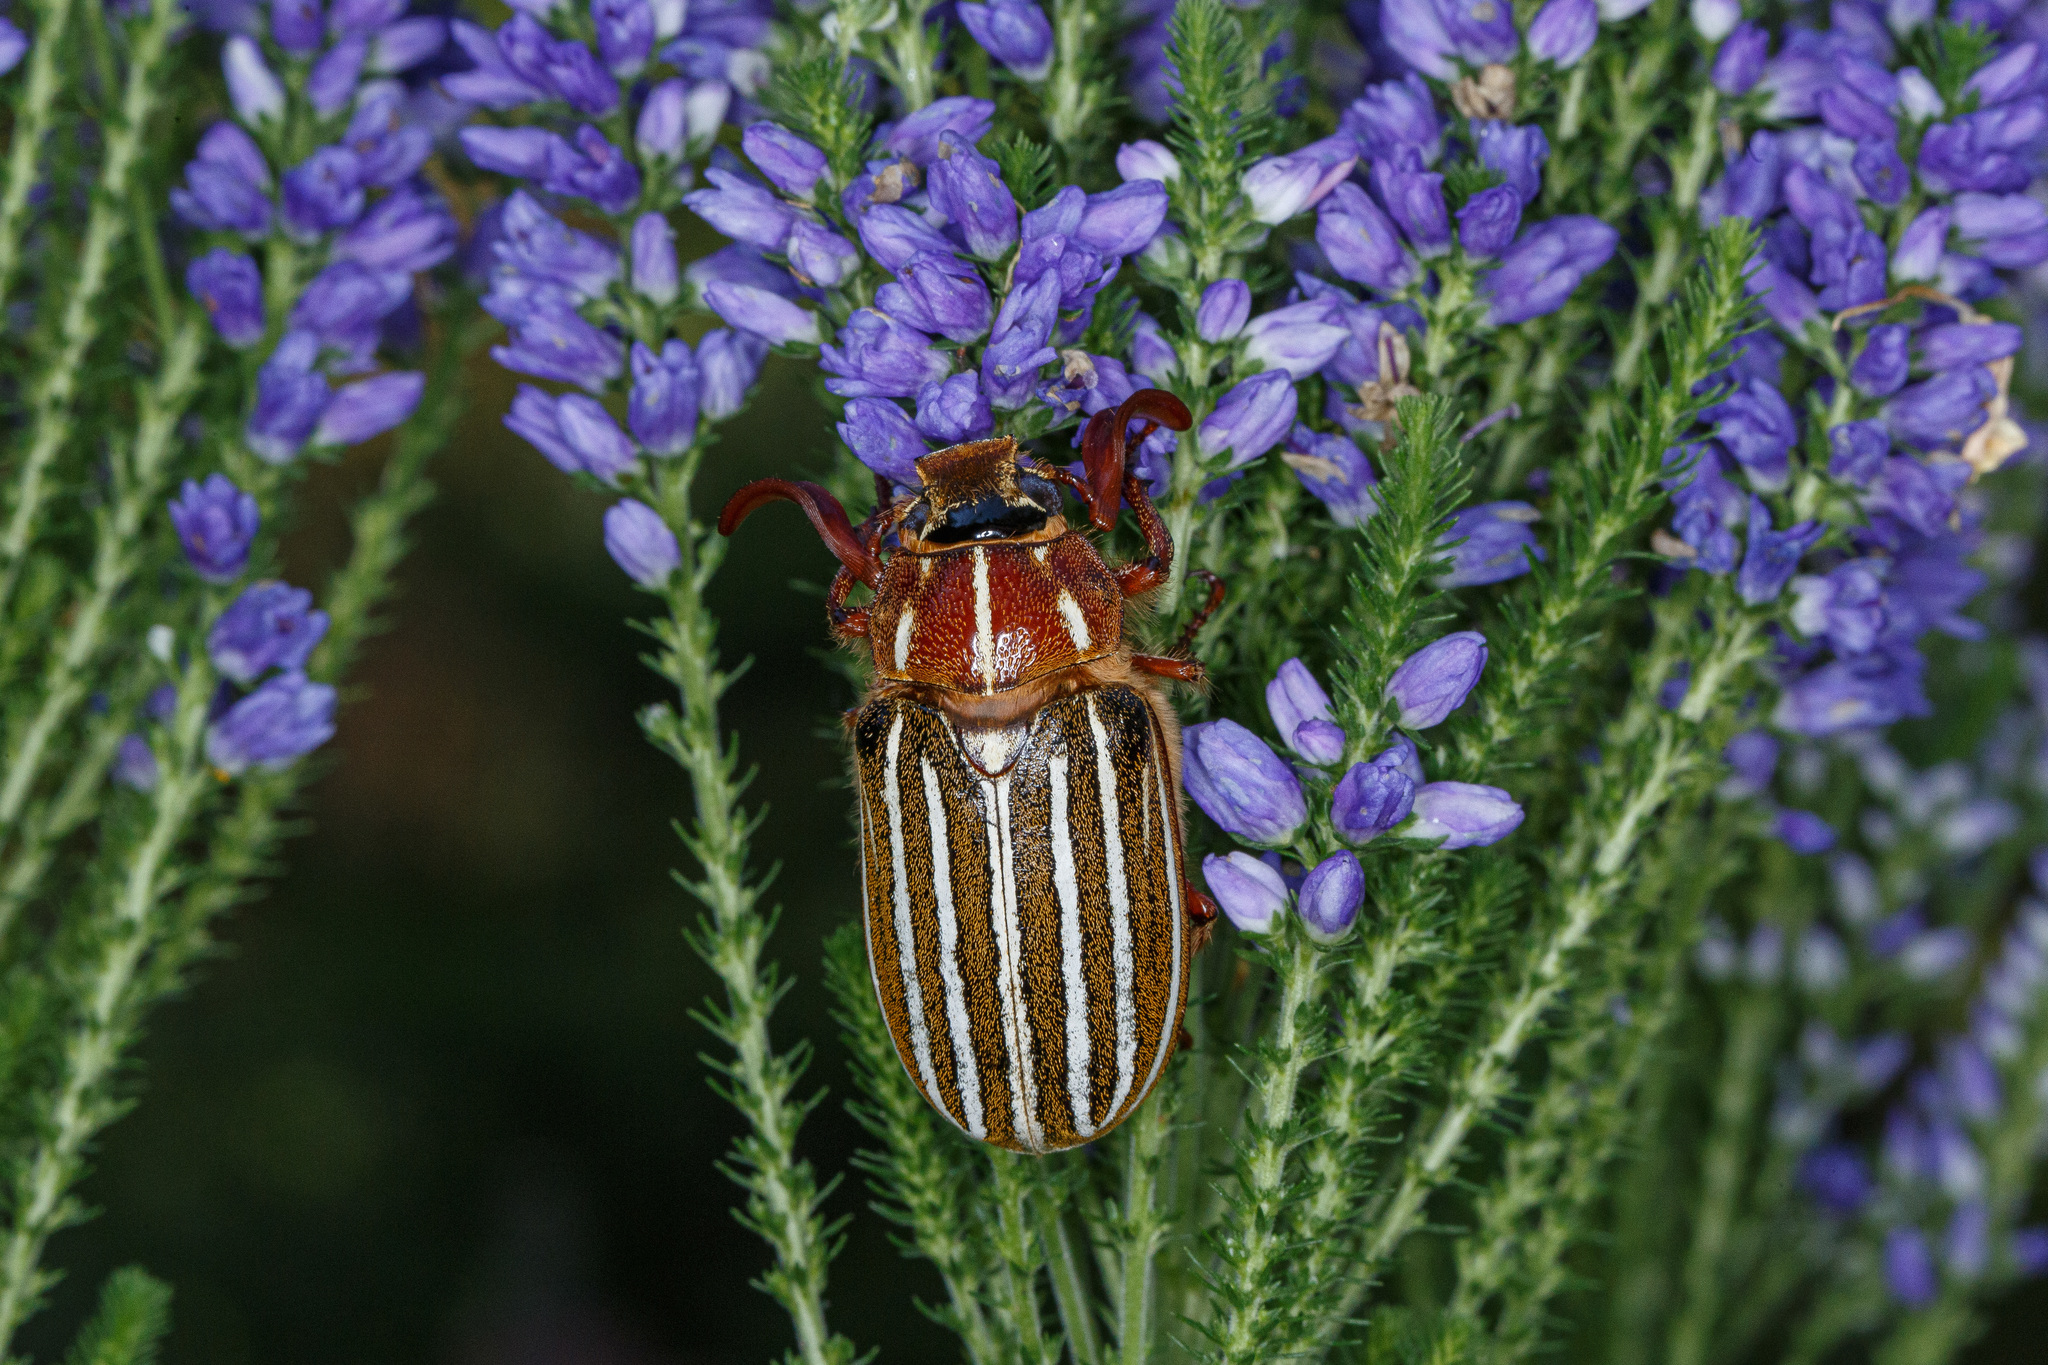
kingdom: Animalia
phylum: Arthropoda
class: Insecta
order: Coleoptera
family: Scarabaeidae
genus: Polyphylla
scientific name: Polyphylla crinita
